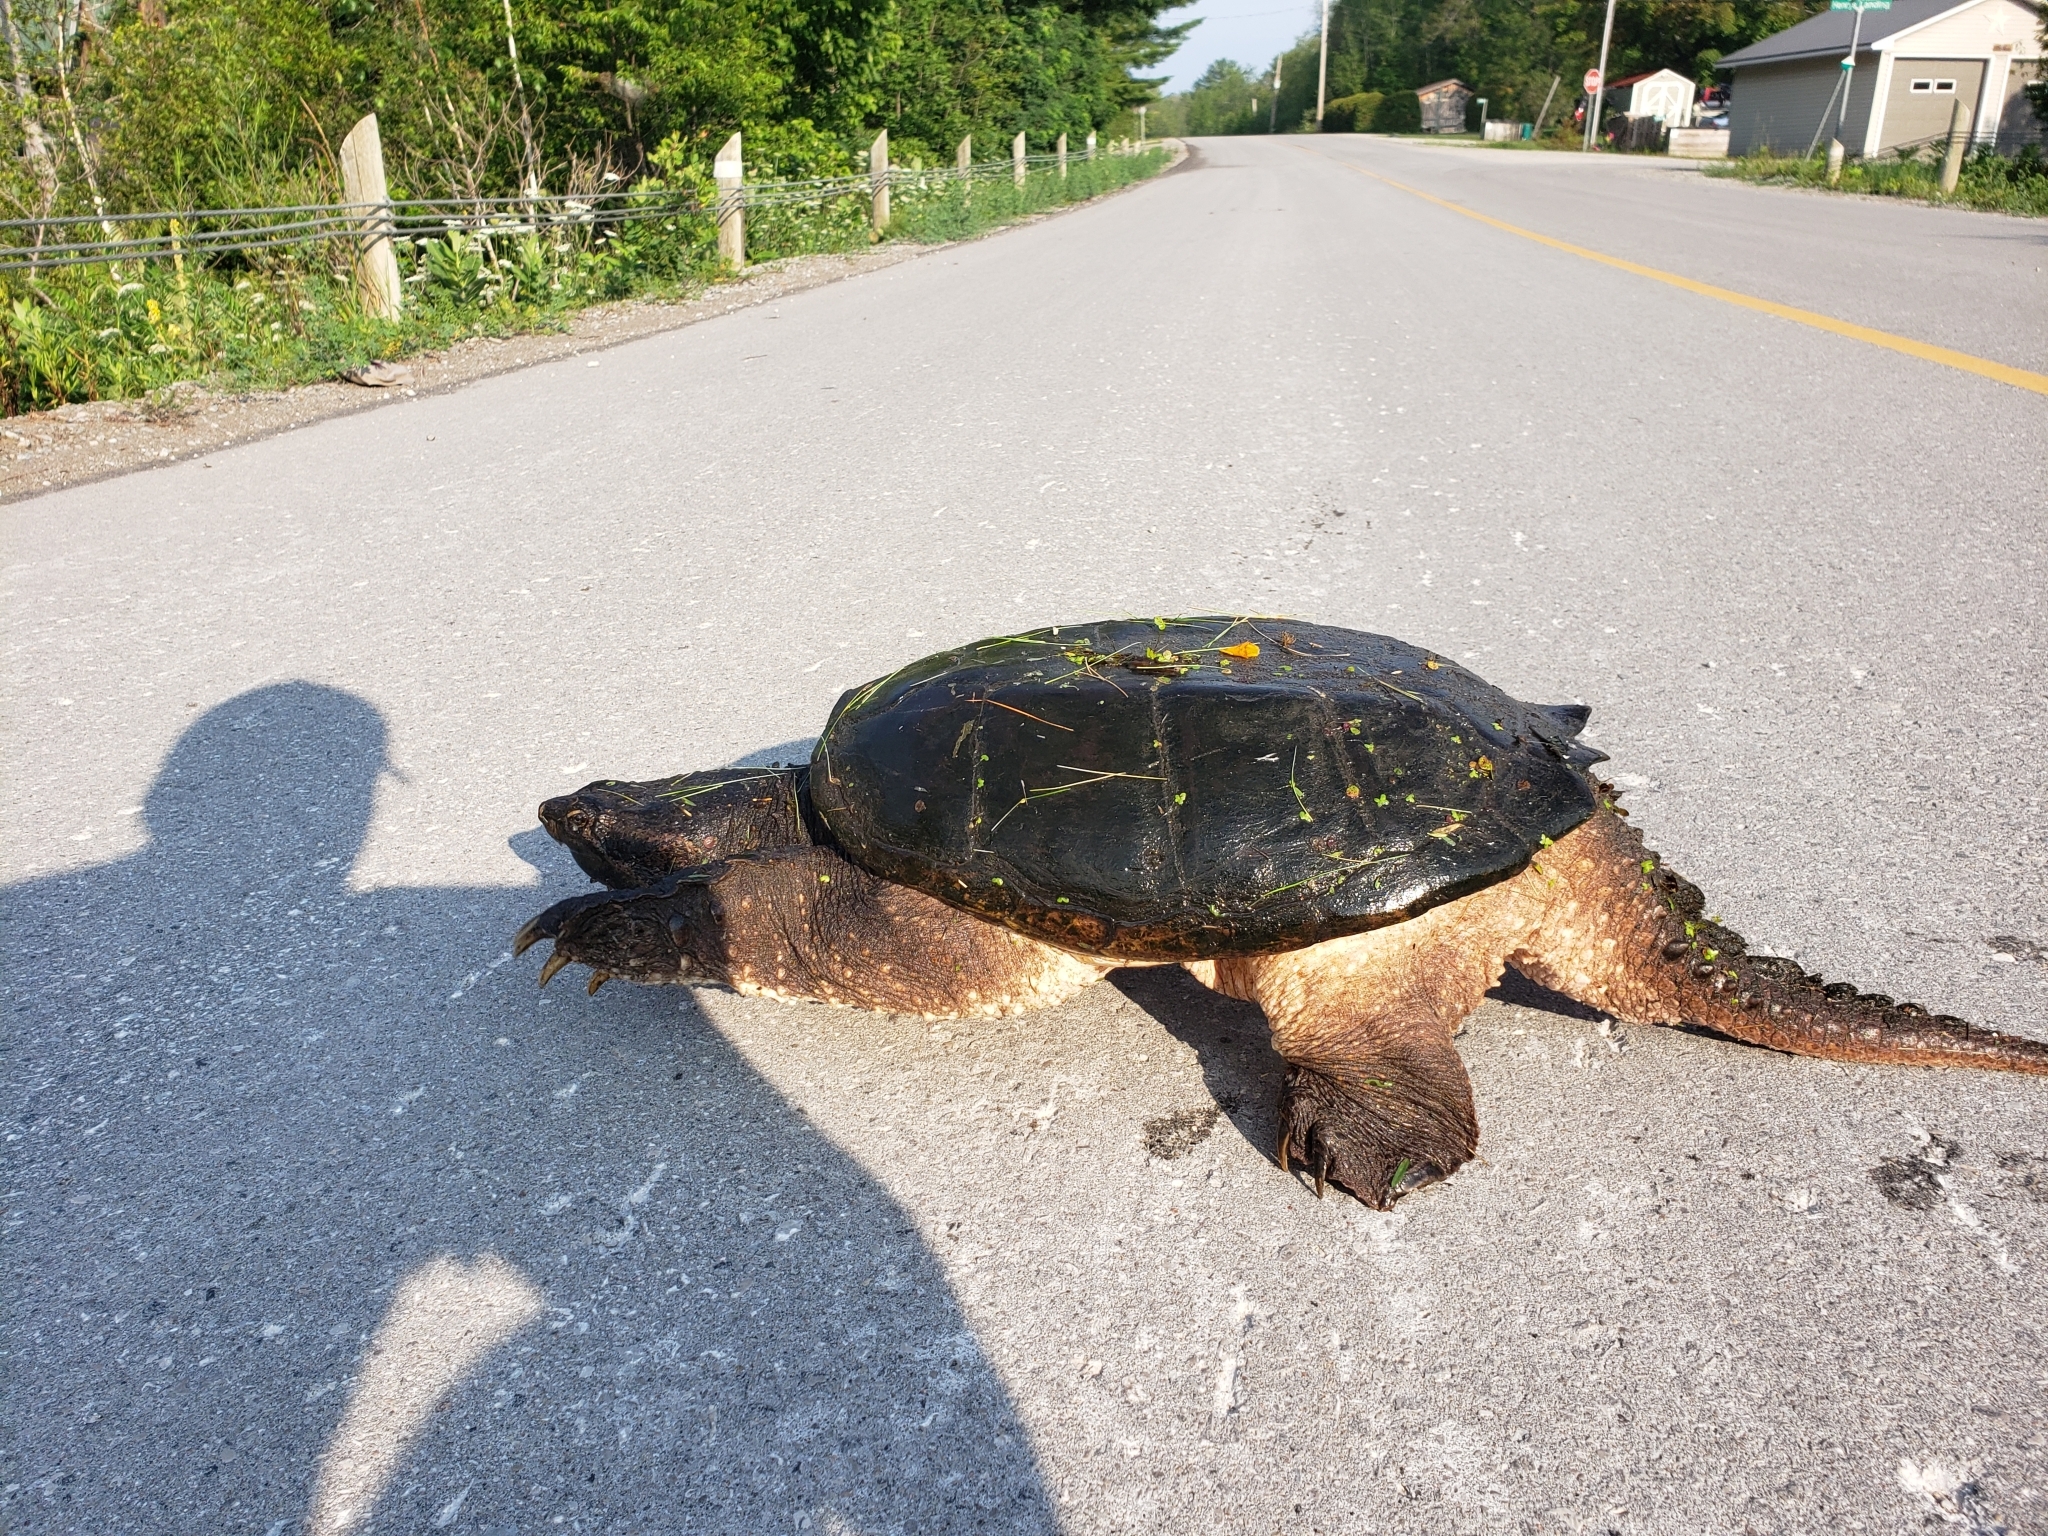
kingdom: Animalia
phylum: Chordata
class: Testudines
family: Chelydridae
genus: Chelydra
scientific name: Chelydra serpentina
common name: Common snapping turtle
